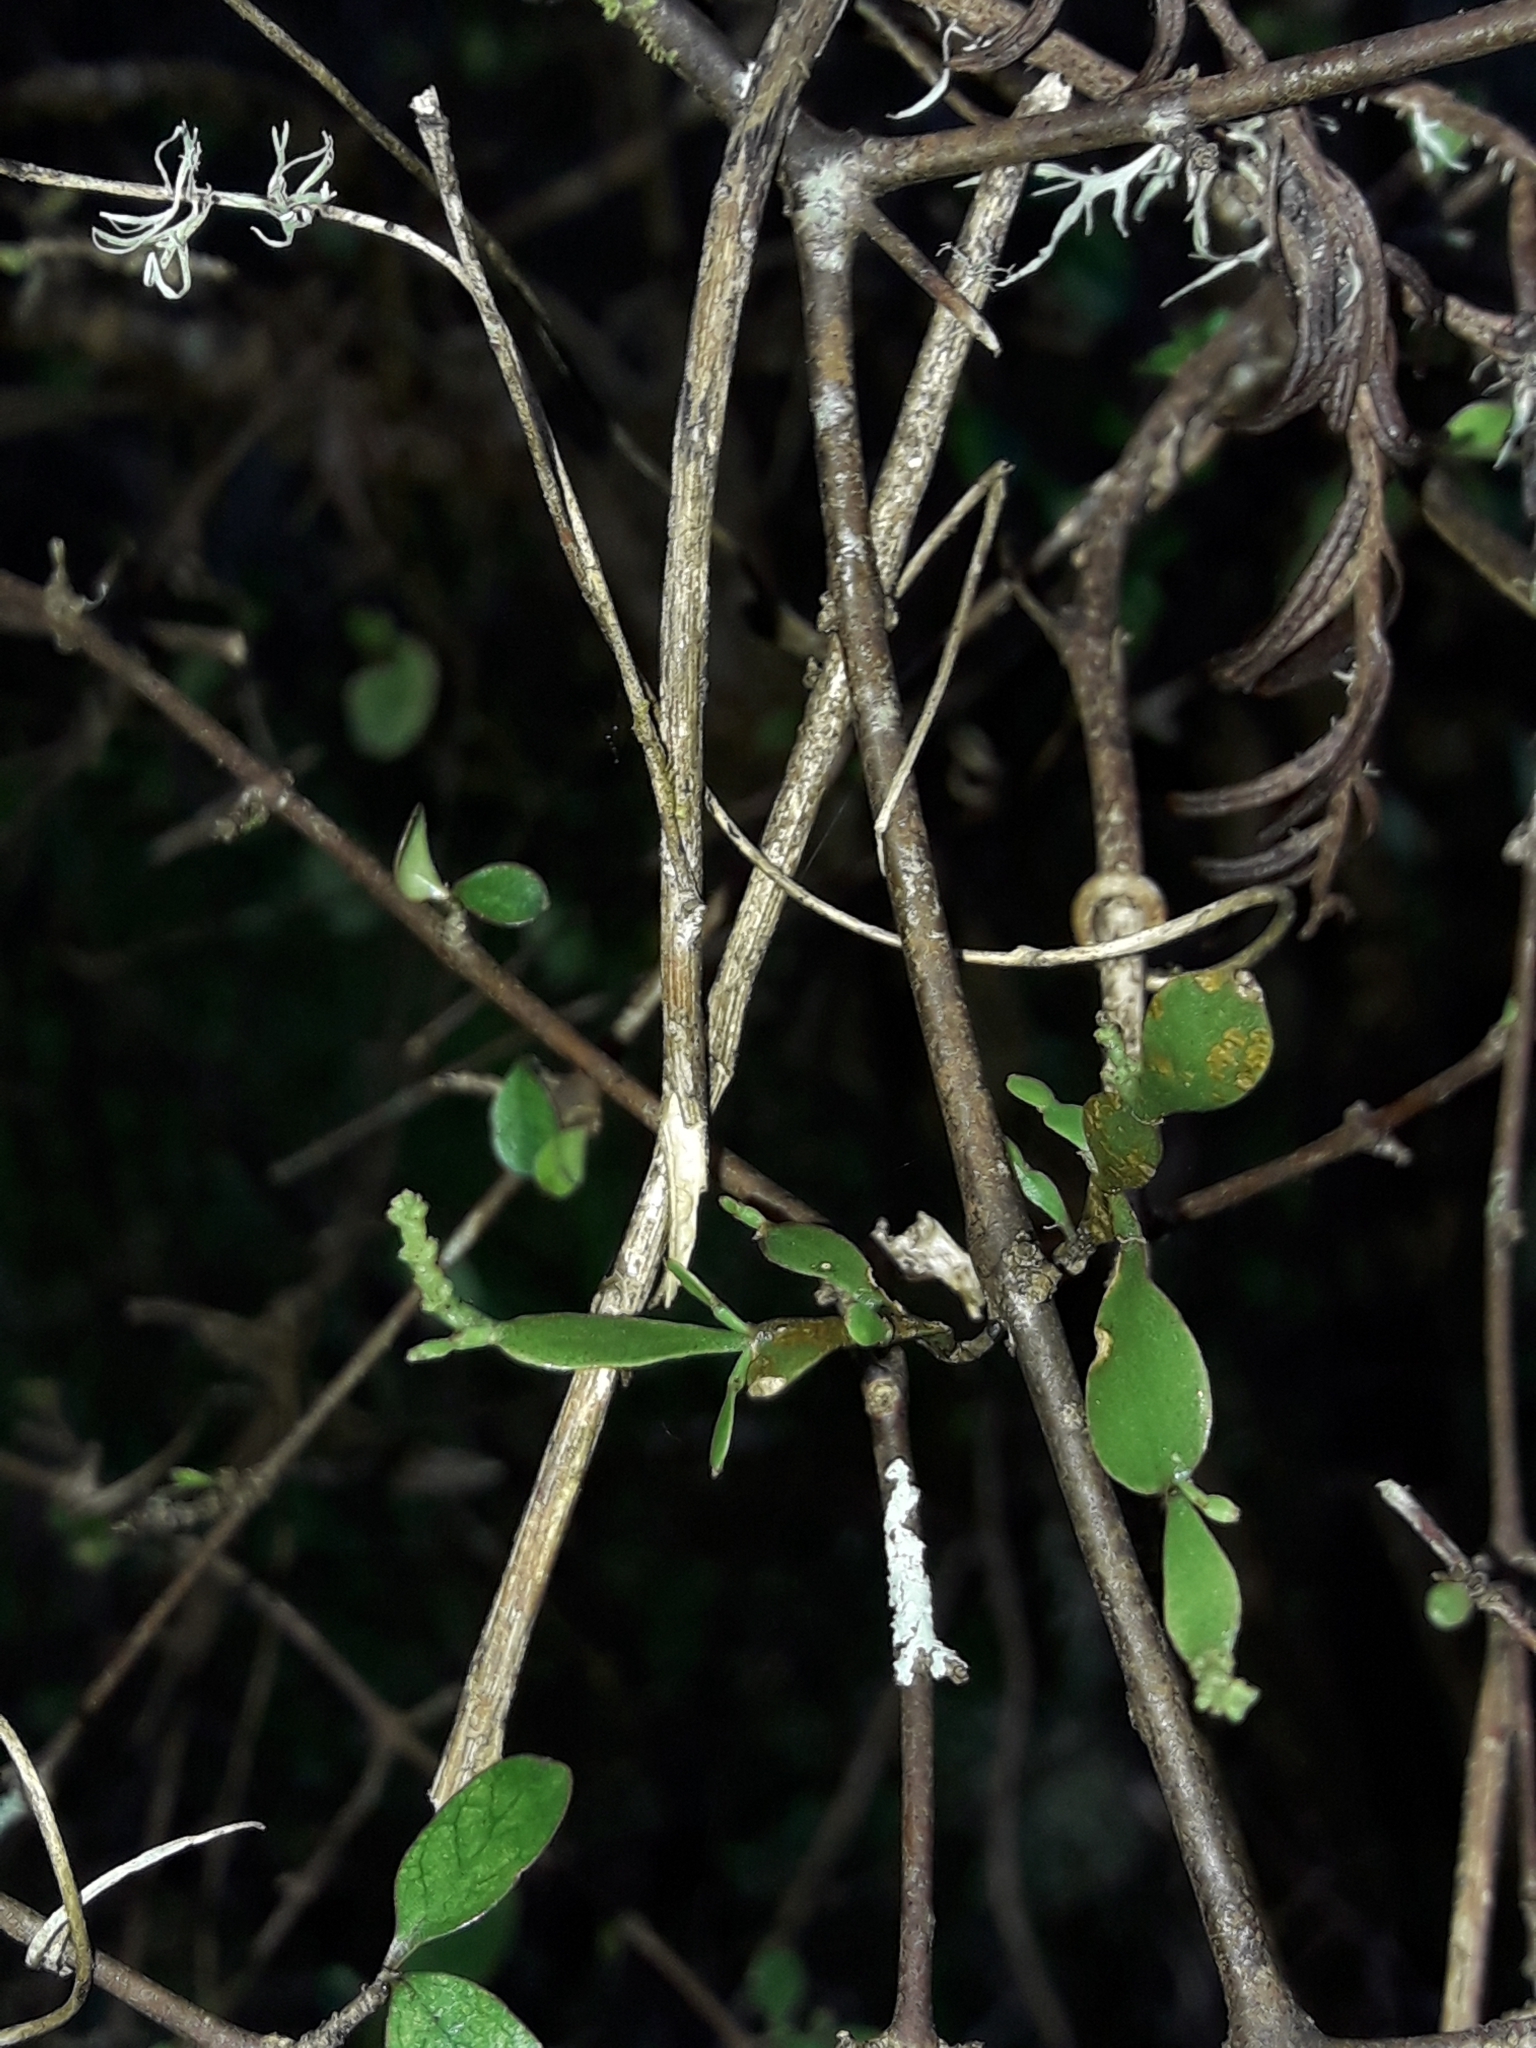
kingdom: Plantae
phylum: Tracheophyta
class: Magnoliopsida
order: Santalales
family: Viscaceae
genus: Korthalsella
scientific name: Korthalsella lindsayi
